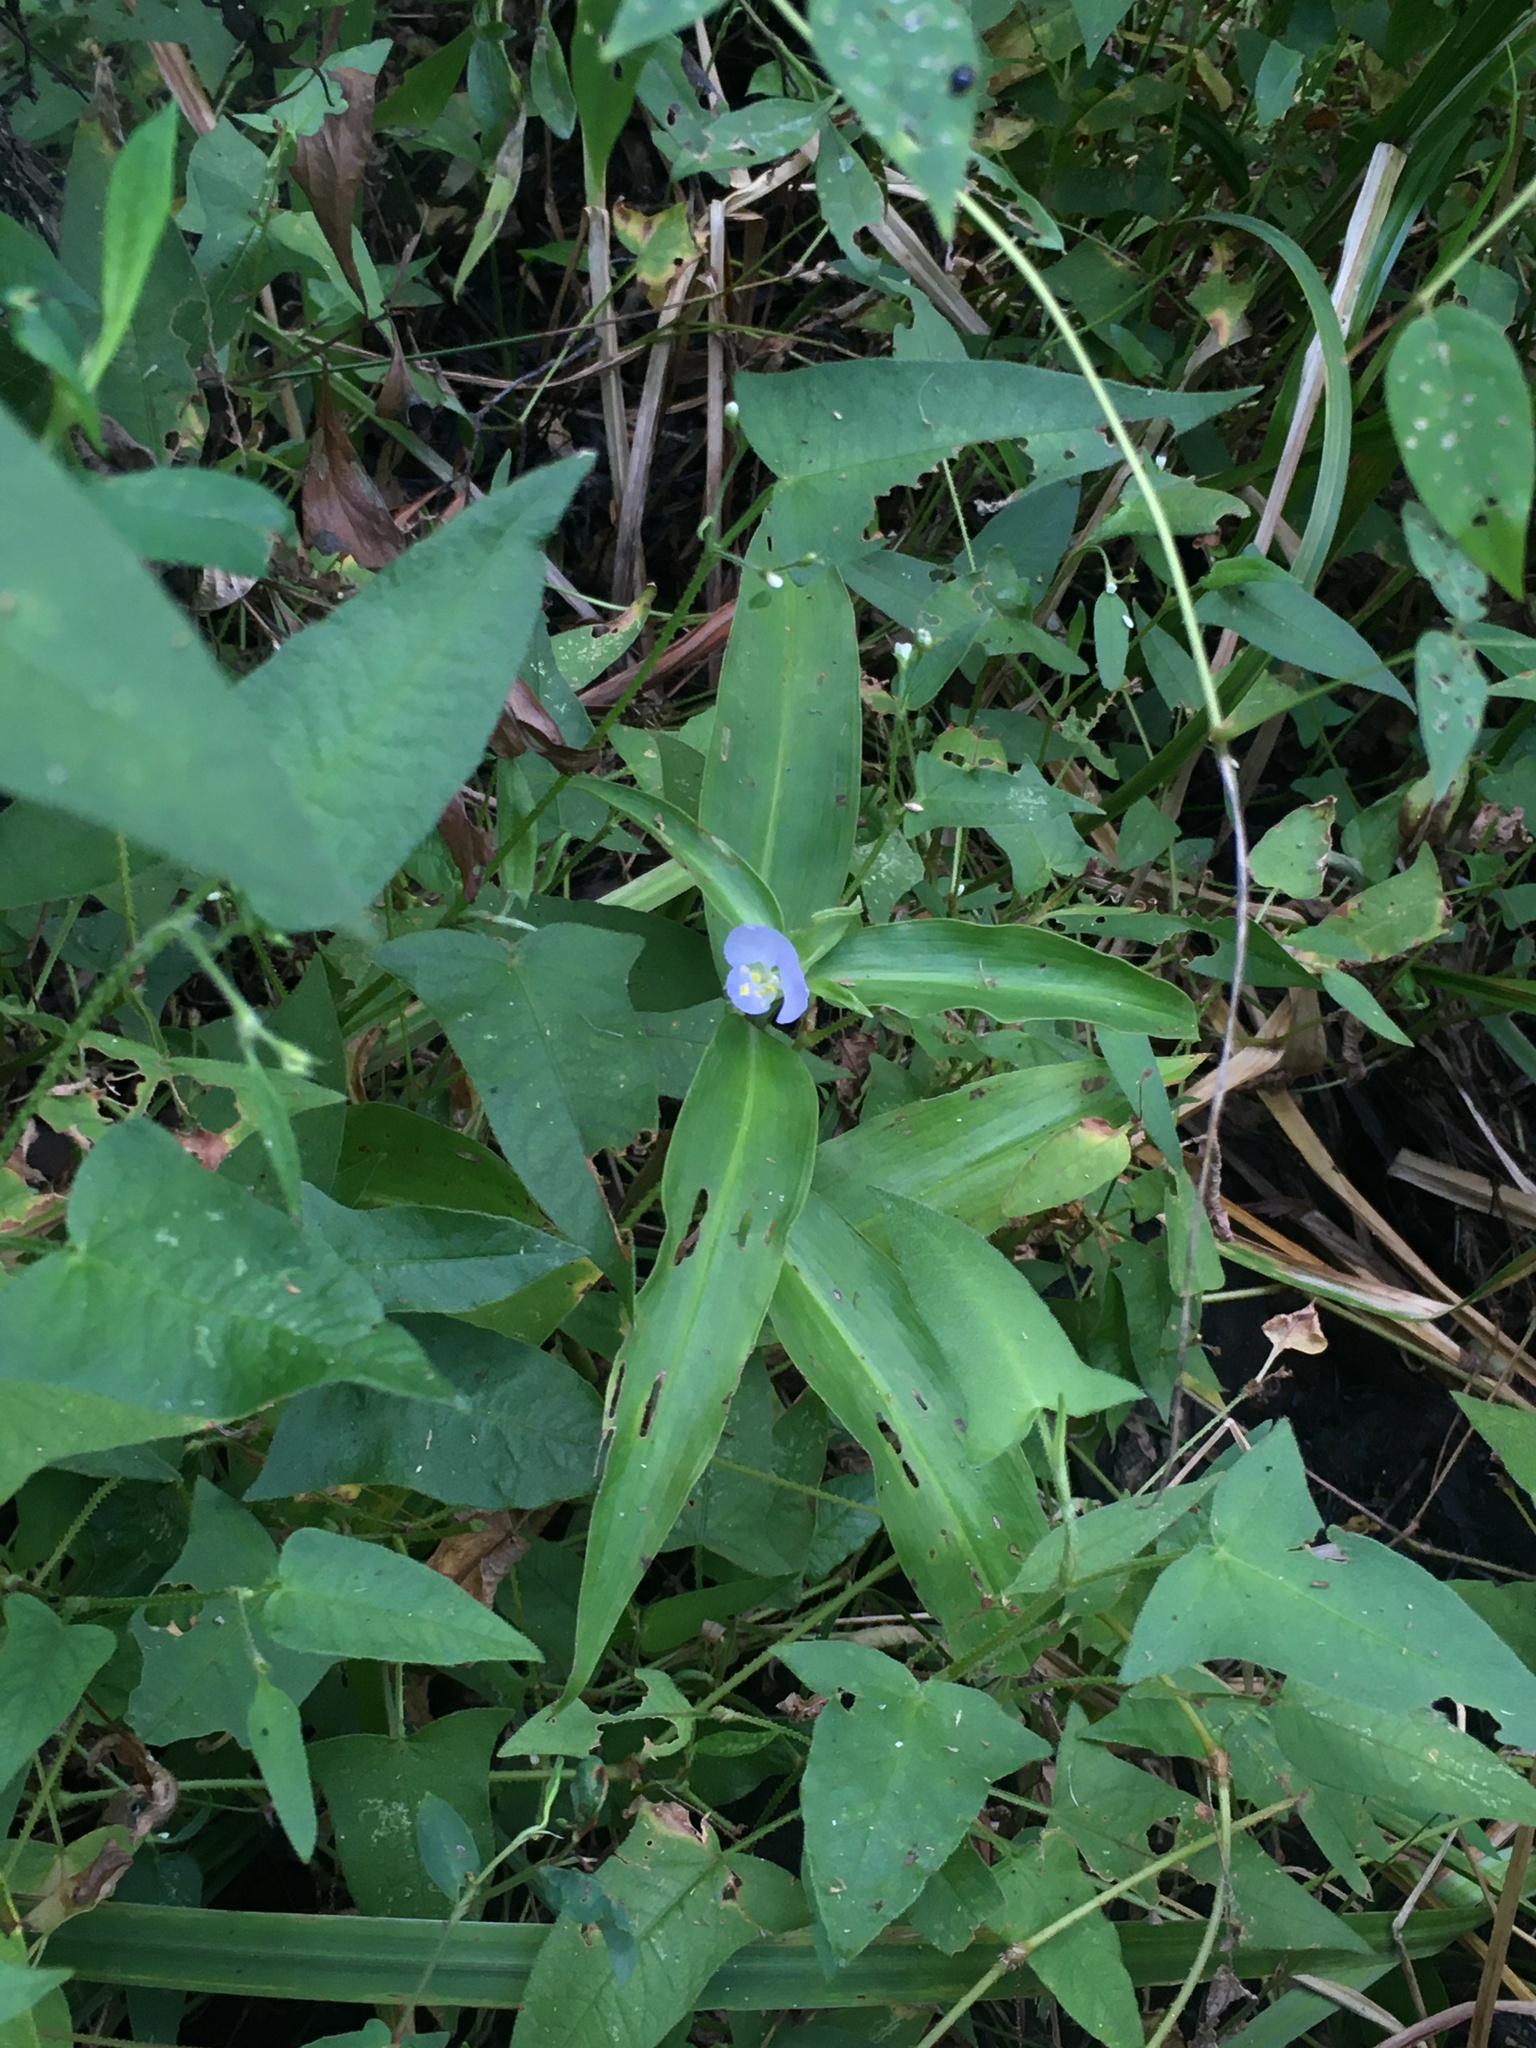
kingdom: Plantae
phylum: Tracheophyta
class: Liliopsida
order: Commelinales
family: Commelinaceae
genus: Commelina
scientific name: Commelina virginica
